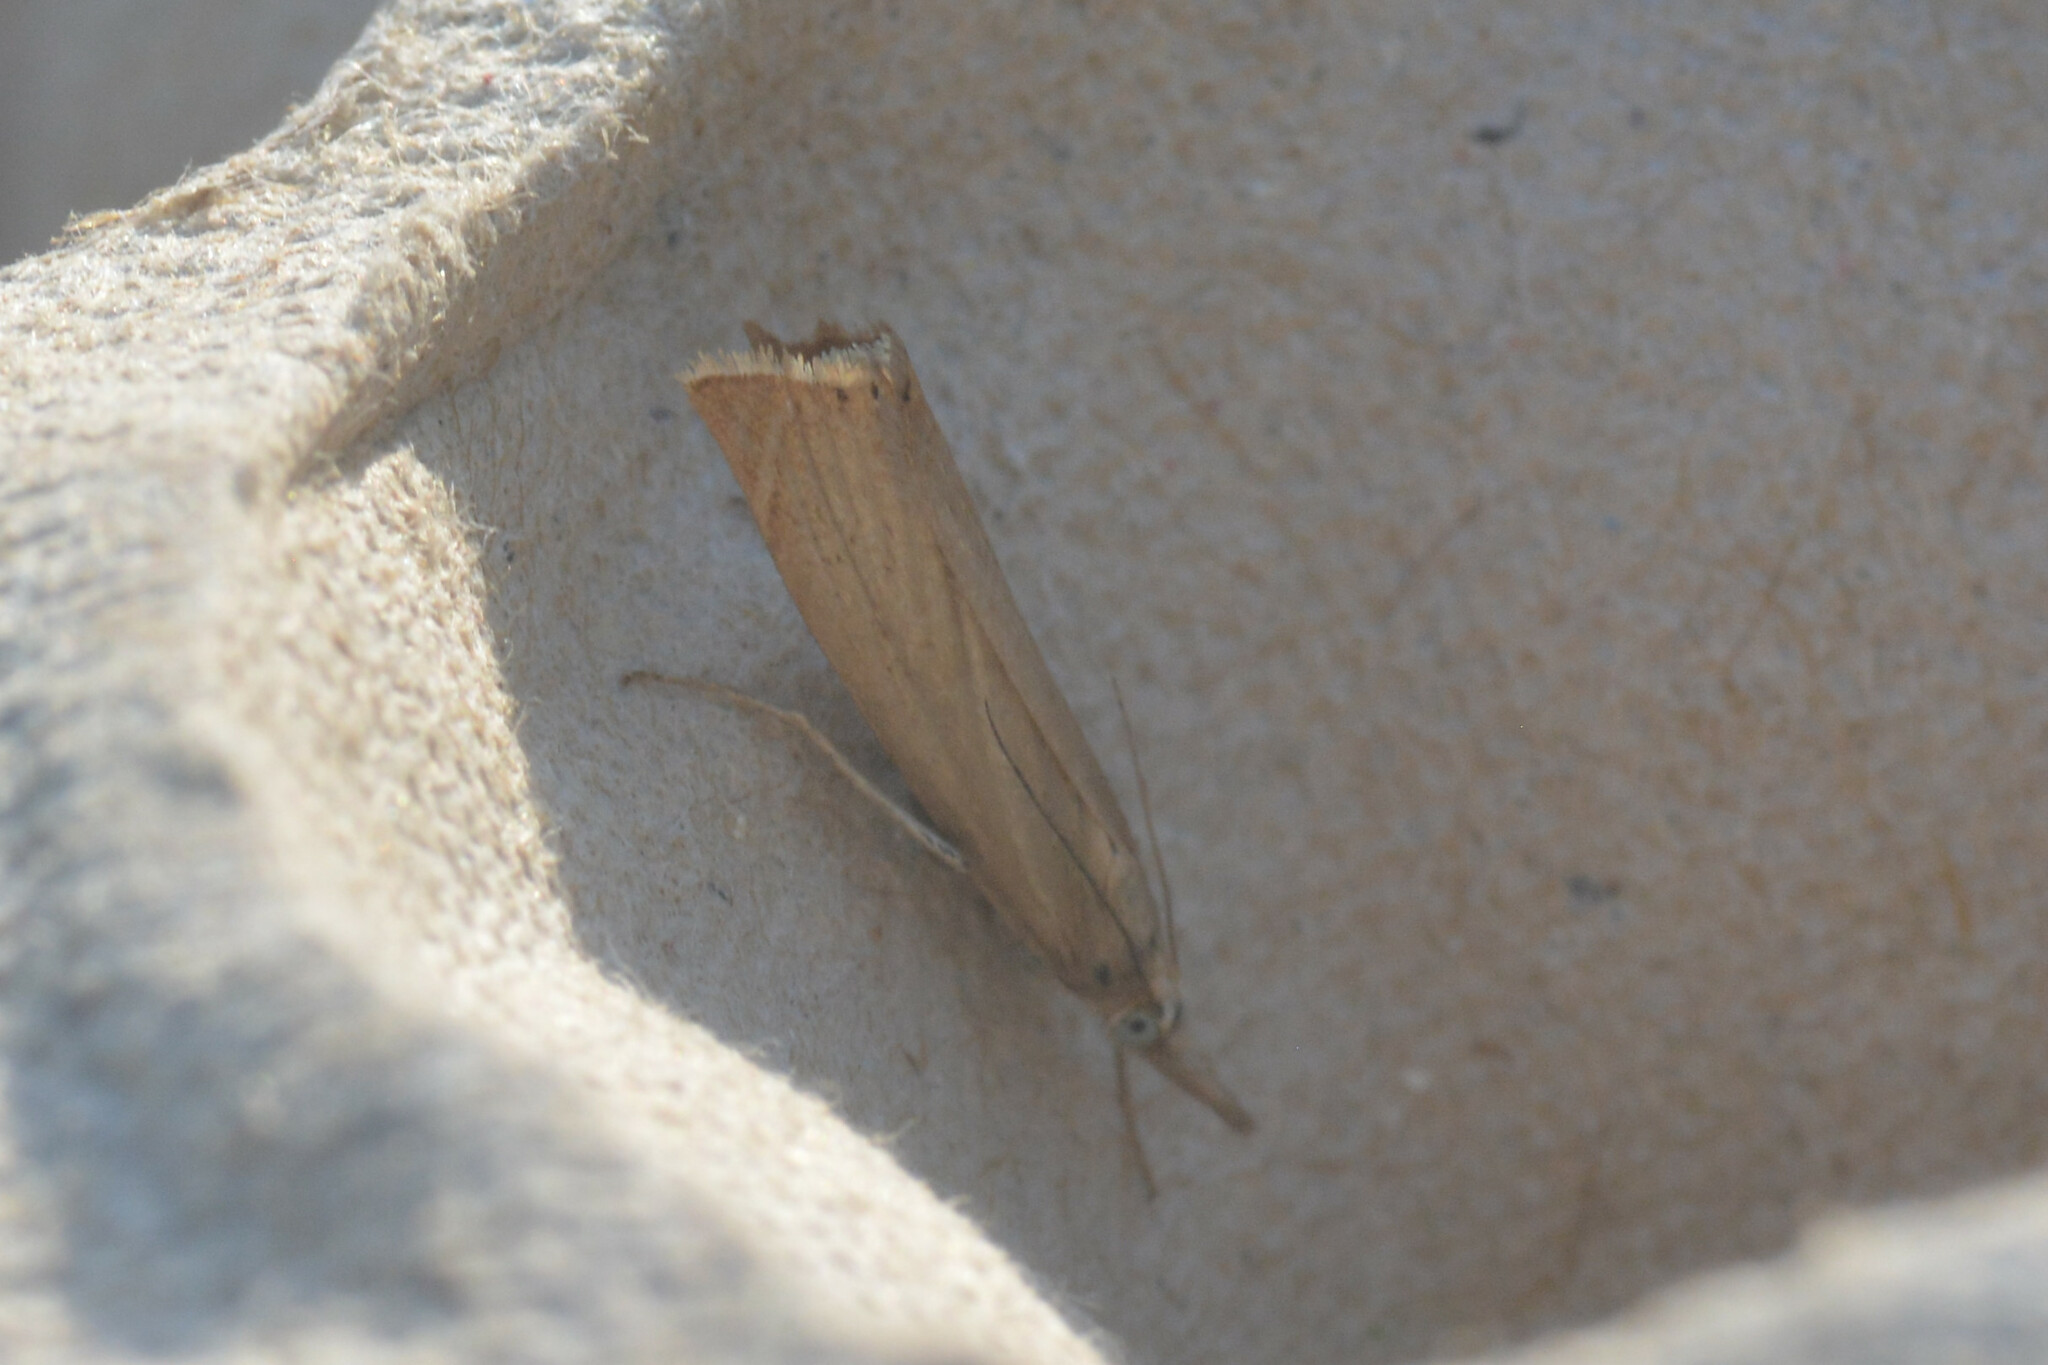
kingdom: Animalia
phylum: Arthropoda
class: Insecta
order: Lepidoptera
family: Crambidae
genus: Chrysoteuchia
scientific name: Chrysoteuchia culmella
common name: Garden grass-veneer
